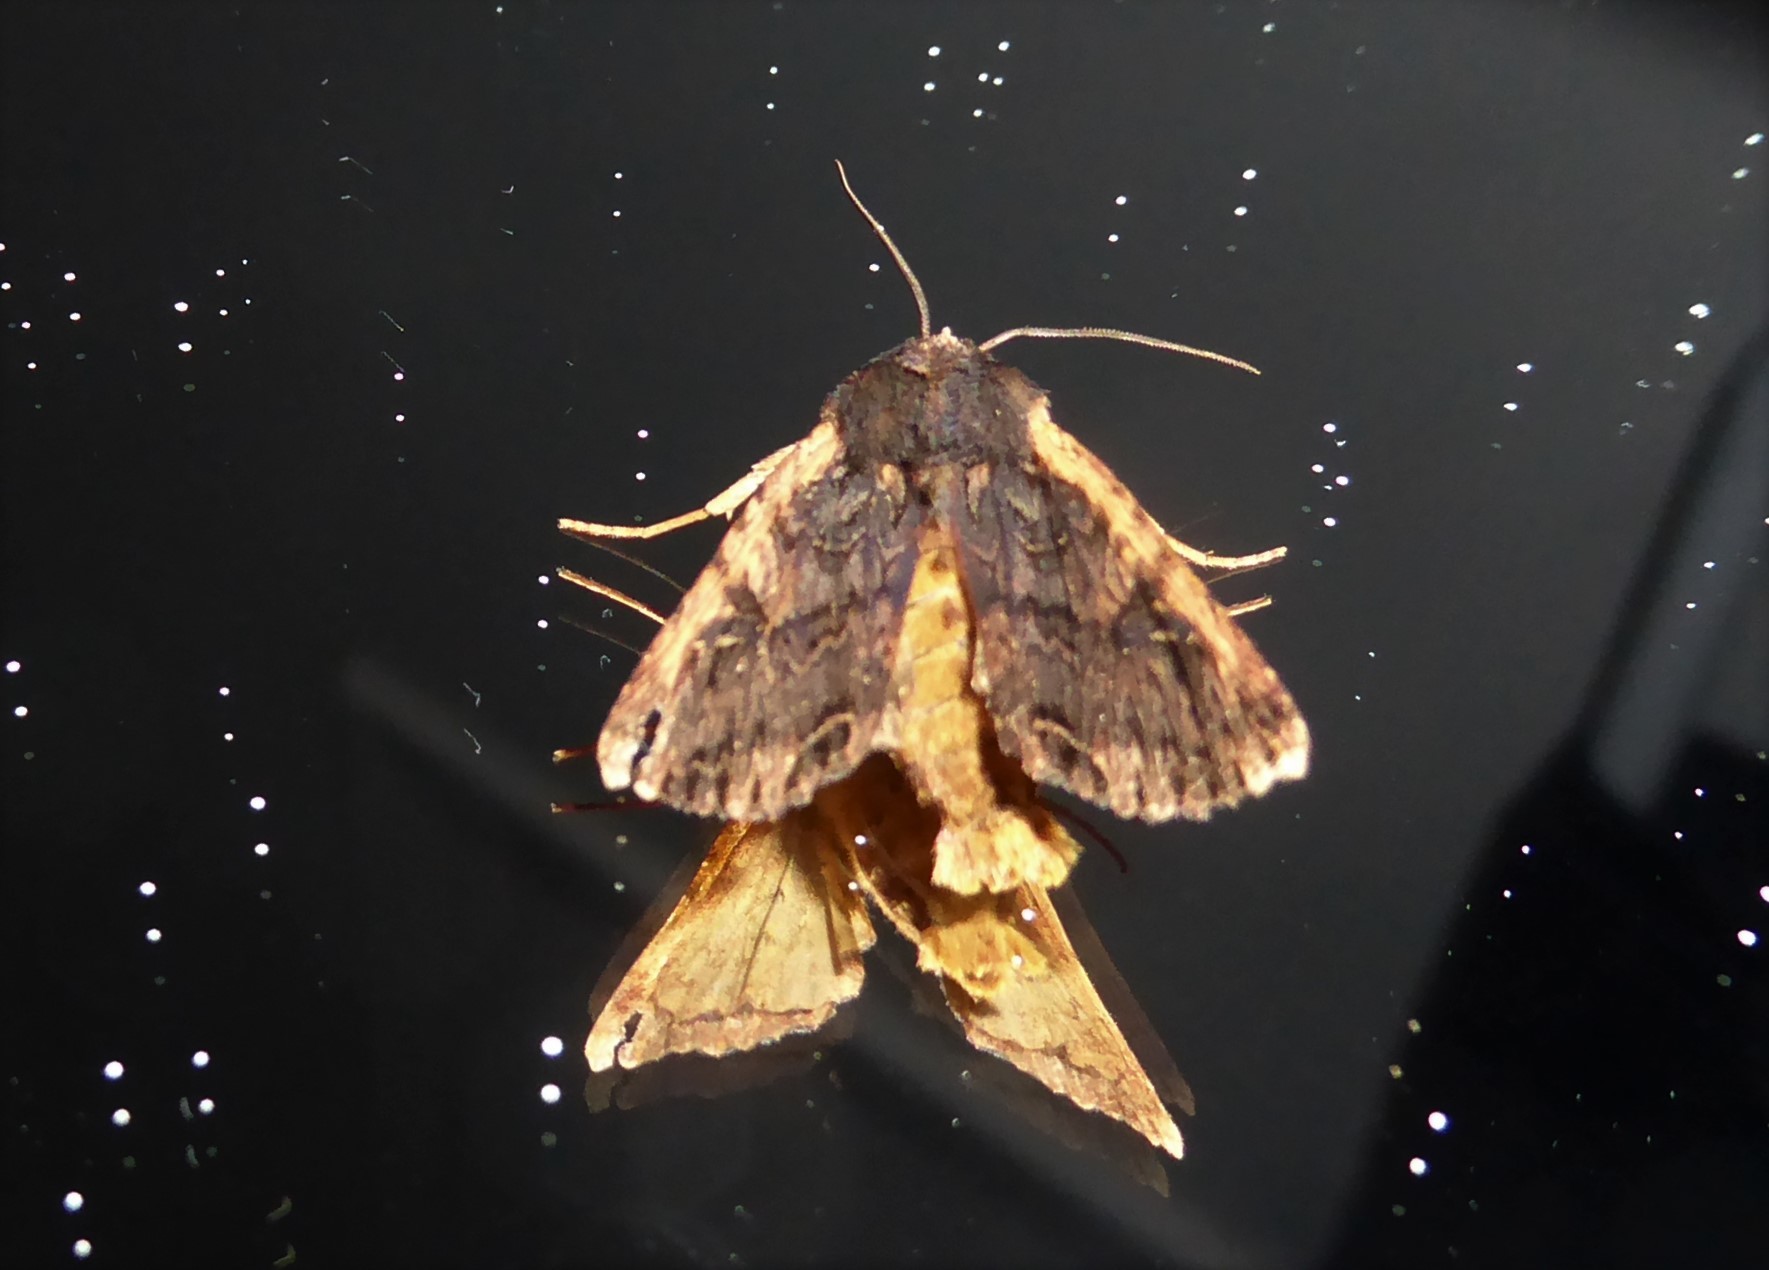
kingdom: Animalia
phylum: Arthropoda
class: Insecta
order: Lepidoptera
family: Noctuidae
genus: Ichneutica
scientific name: Ichneutica omoplaca
